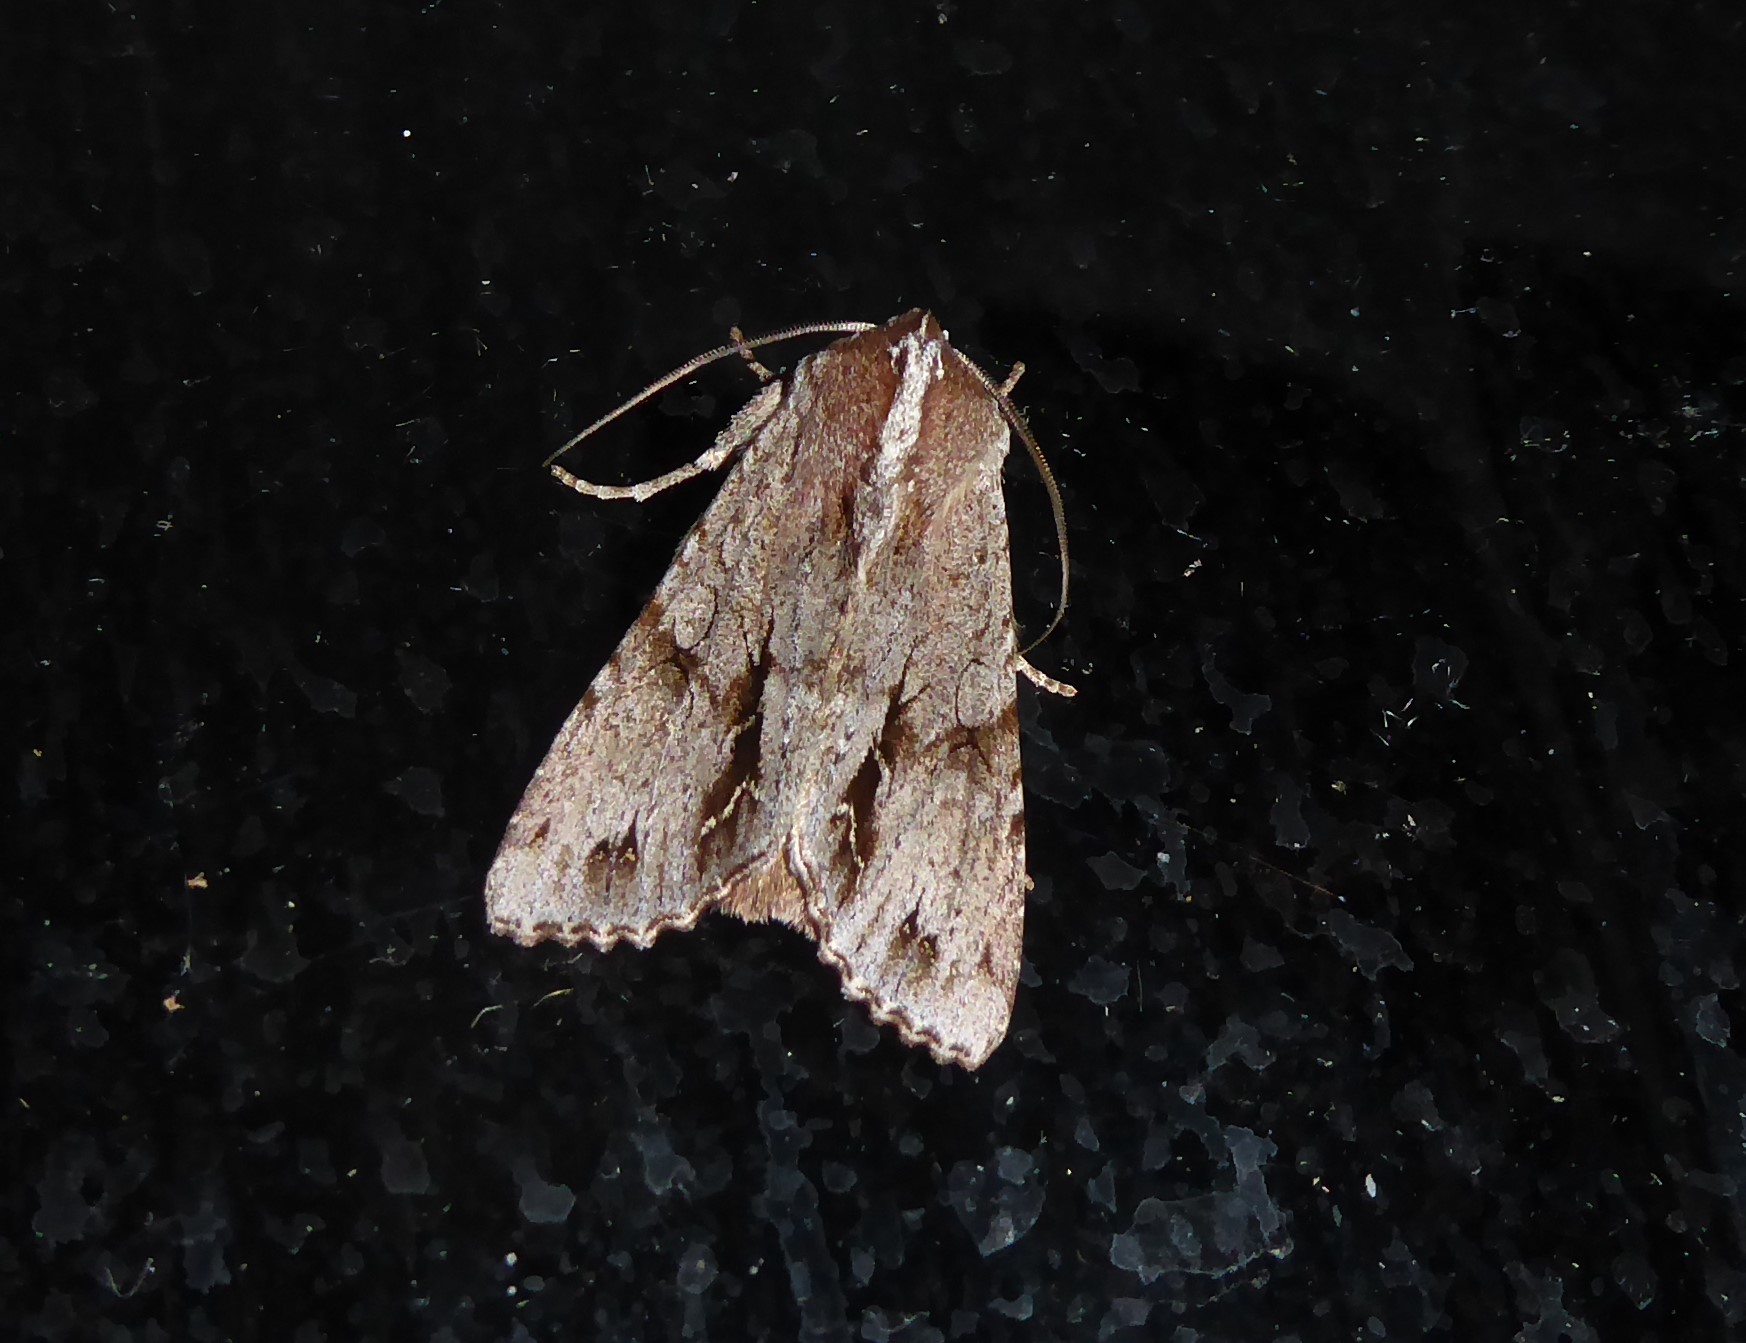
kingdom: Animalia
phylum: Arthropoda
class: Insecta
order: Lepidoptera
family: Noctuidae
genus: Ichneutica
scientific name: Ichneutica
